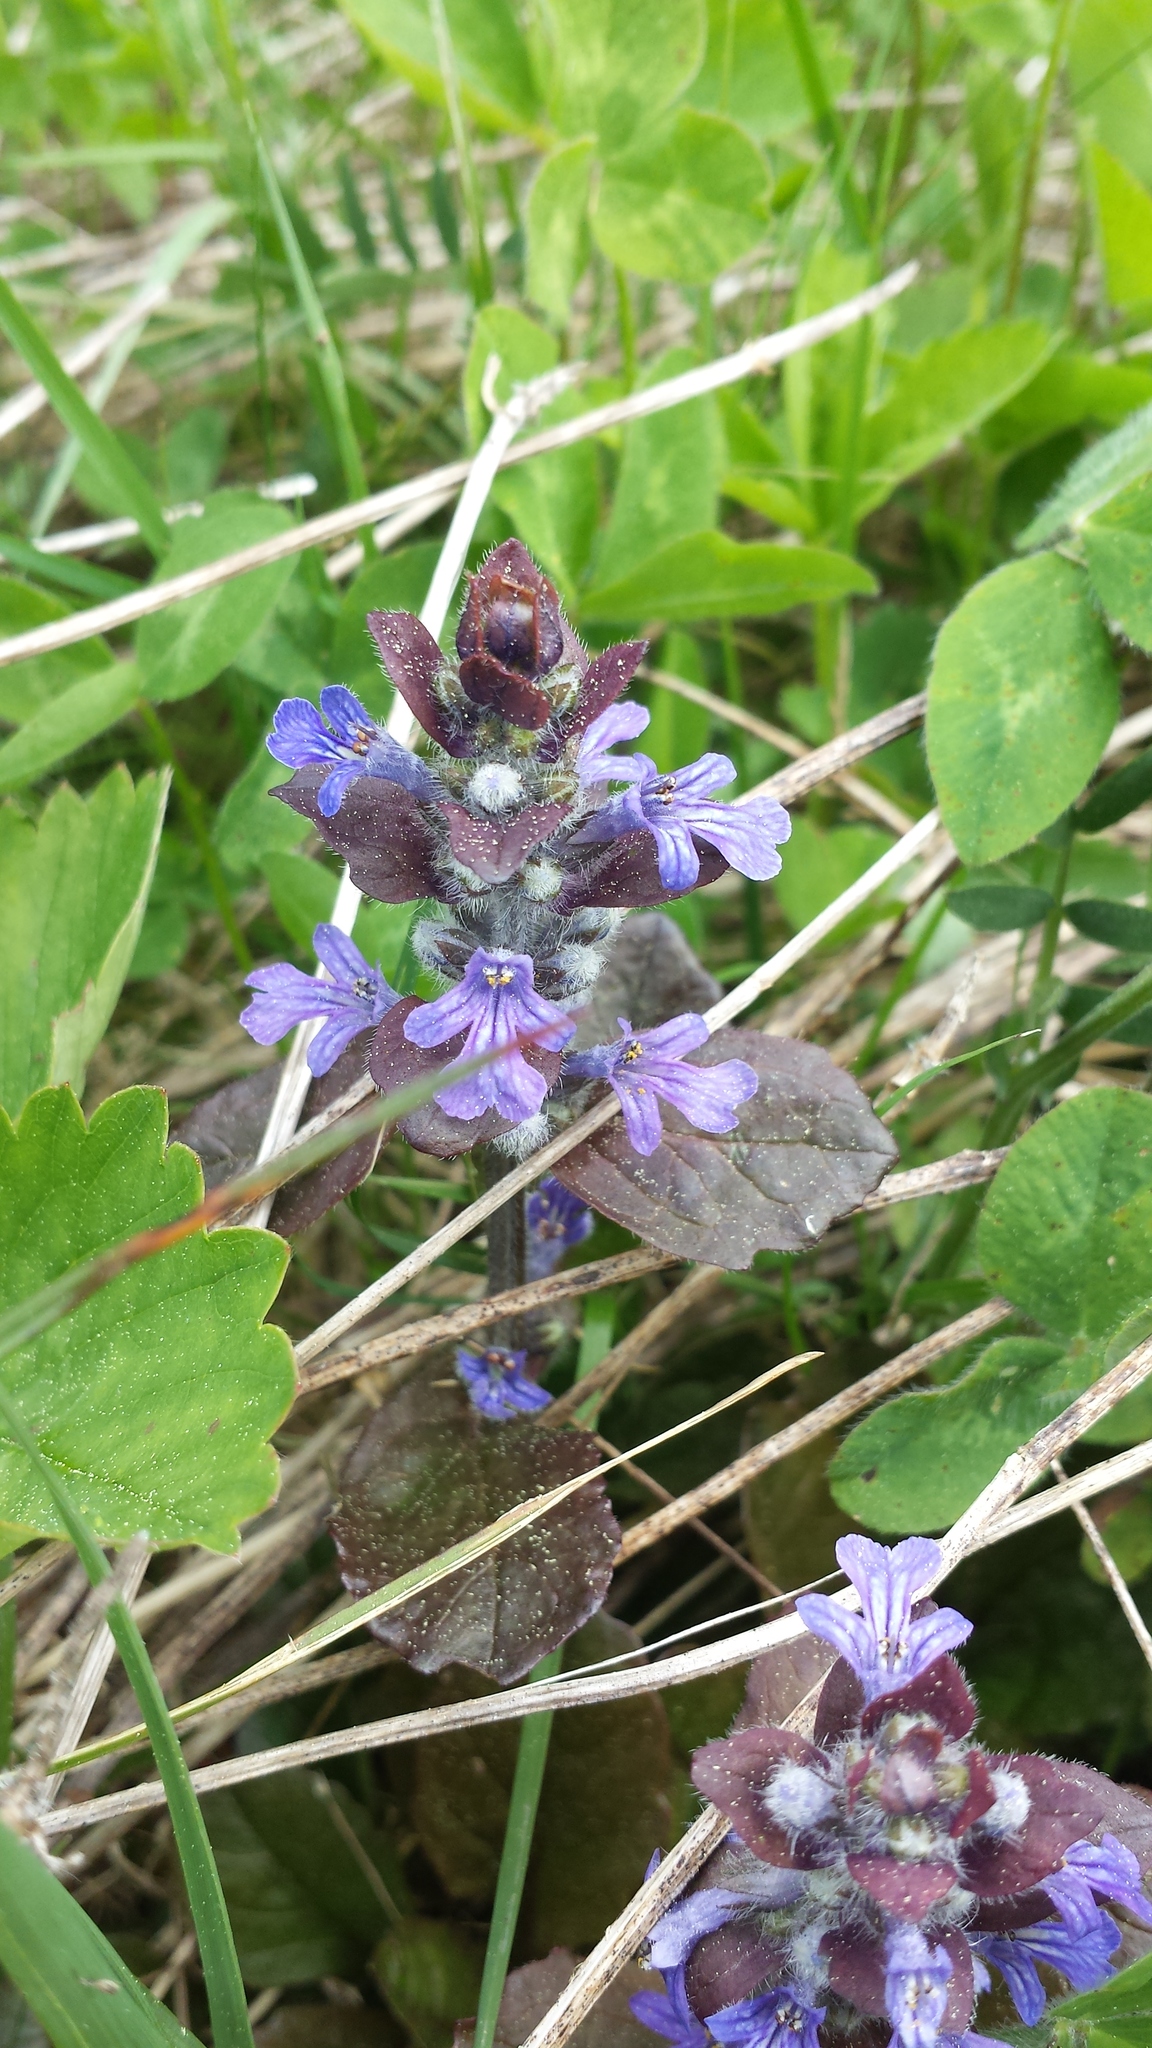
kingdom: Plantae
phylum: Tracheophyta
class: Magnoliopsida
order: Lamiales
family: Lamiaceae
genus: Ajuga
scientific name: Ajuga reptans
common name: Bugle
